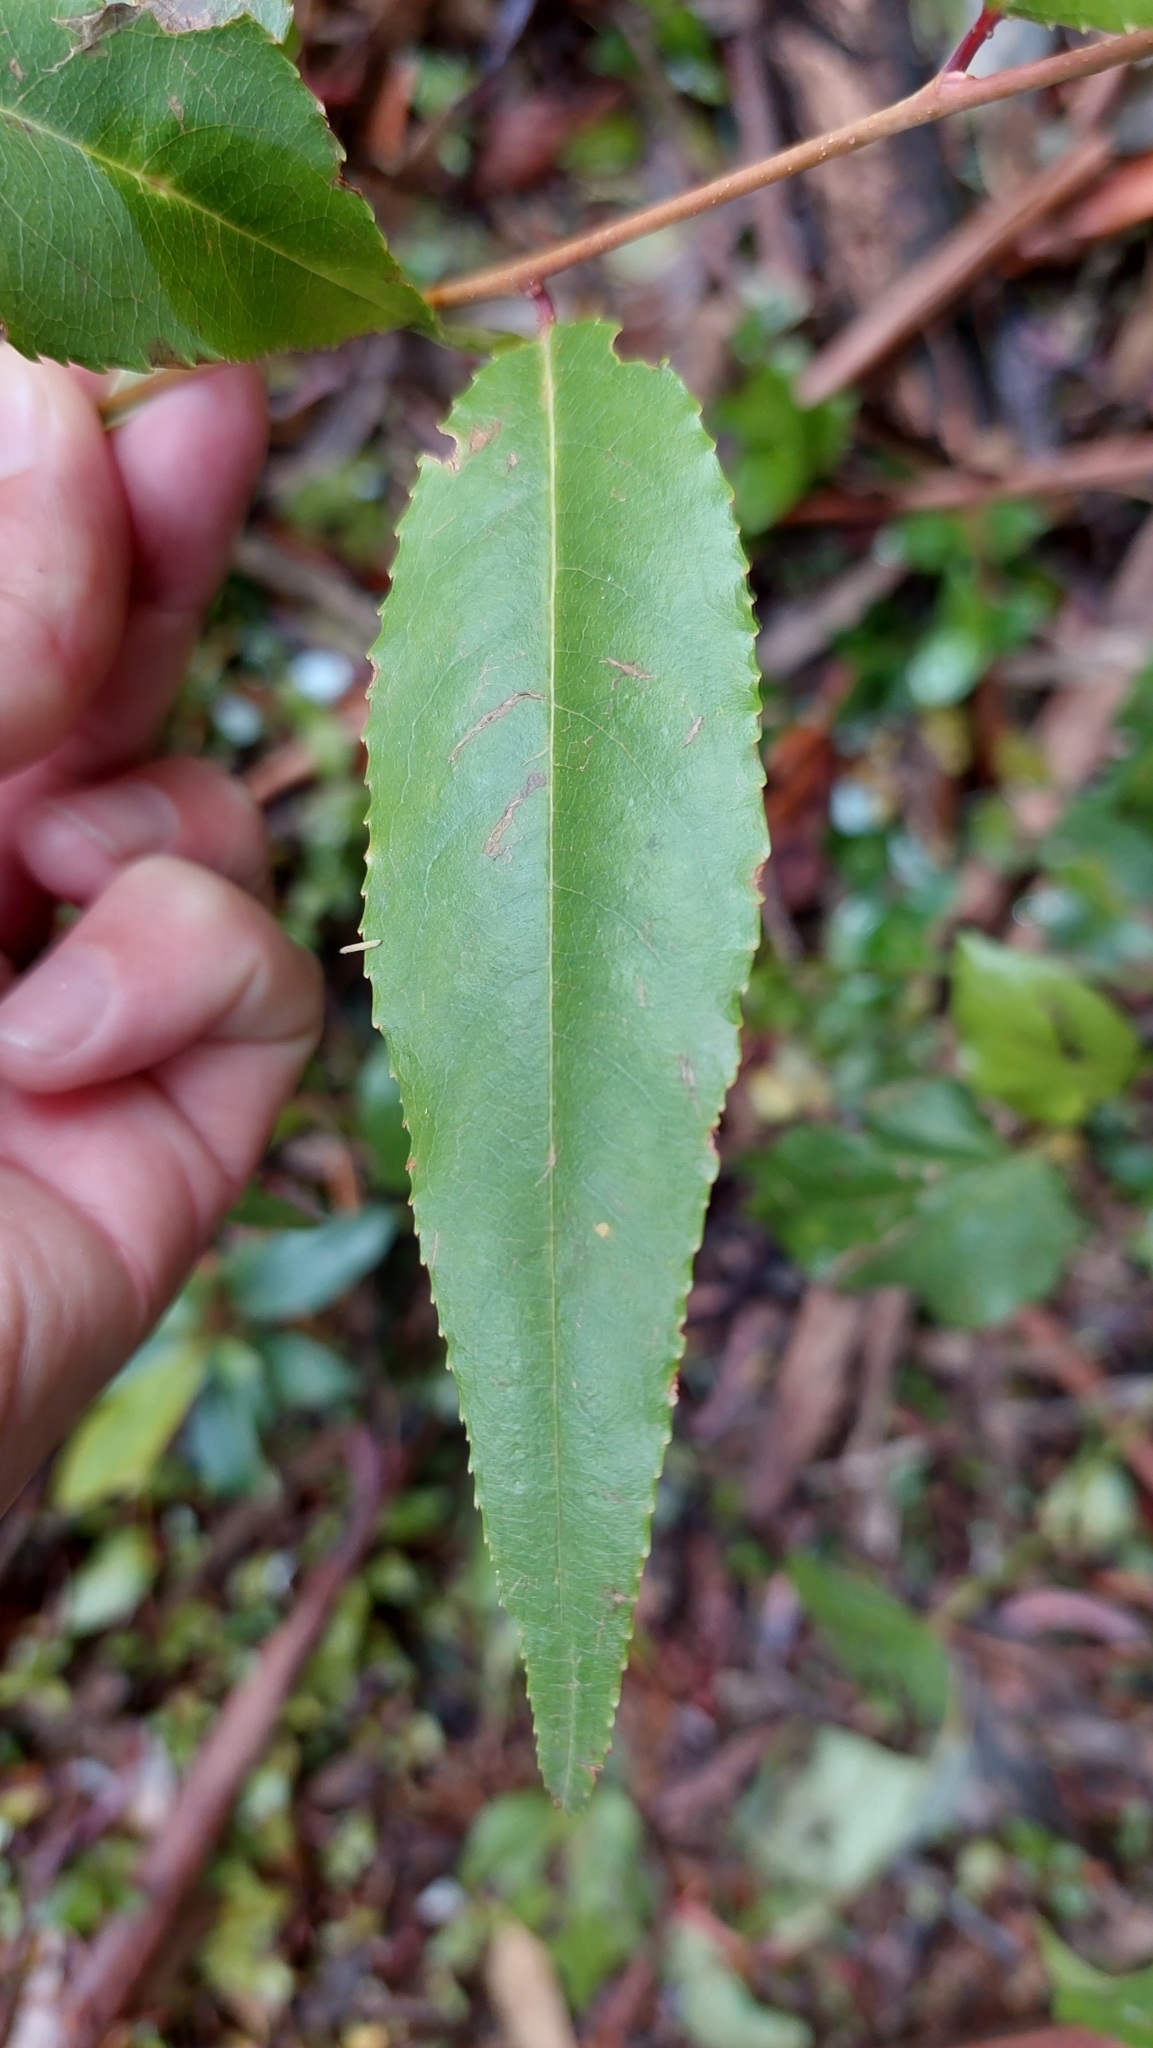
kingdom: Plantae
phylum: Tracheophyta
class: Magnoliopsida
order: Rosales
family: Rosaceae
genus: Prunus
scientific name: Prunus serotina
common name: Black cherry
